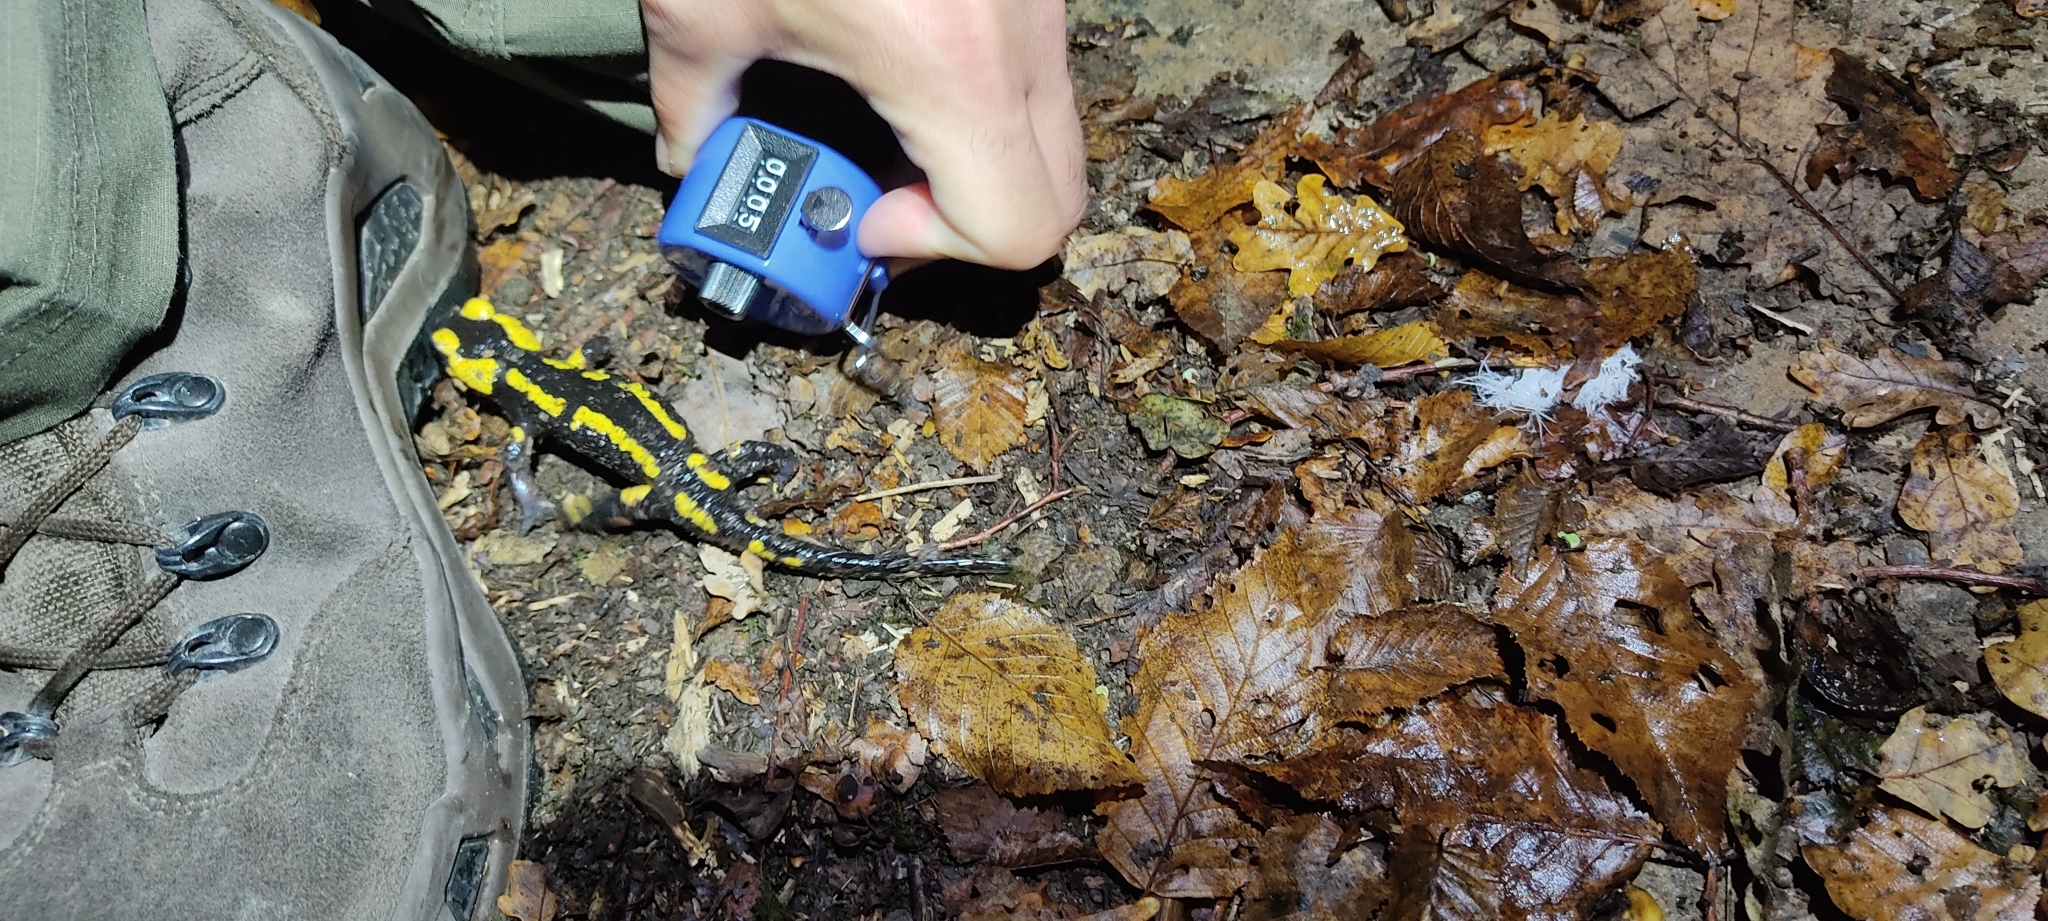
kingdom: Animalia
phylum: Chordata
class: Amphibia
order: Caudata
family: Salamandridae
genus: Salamandra
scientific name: Salamandra salamandra
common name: Fire salamander
